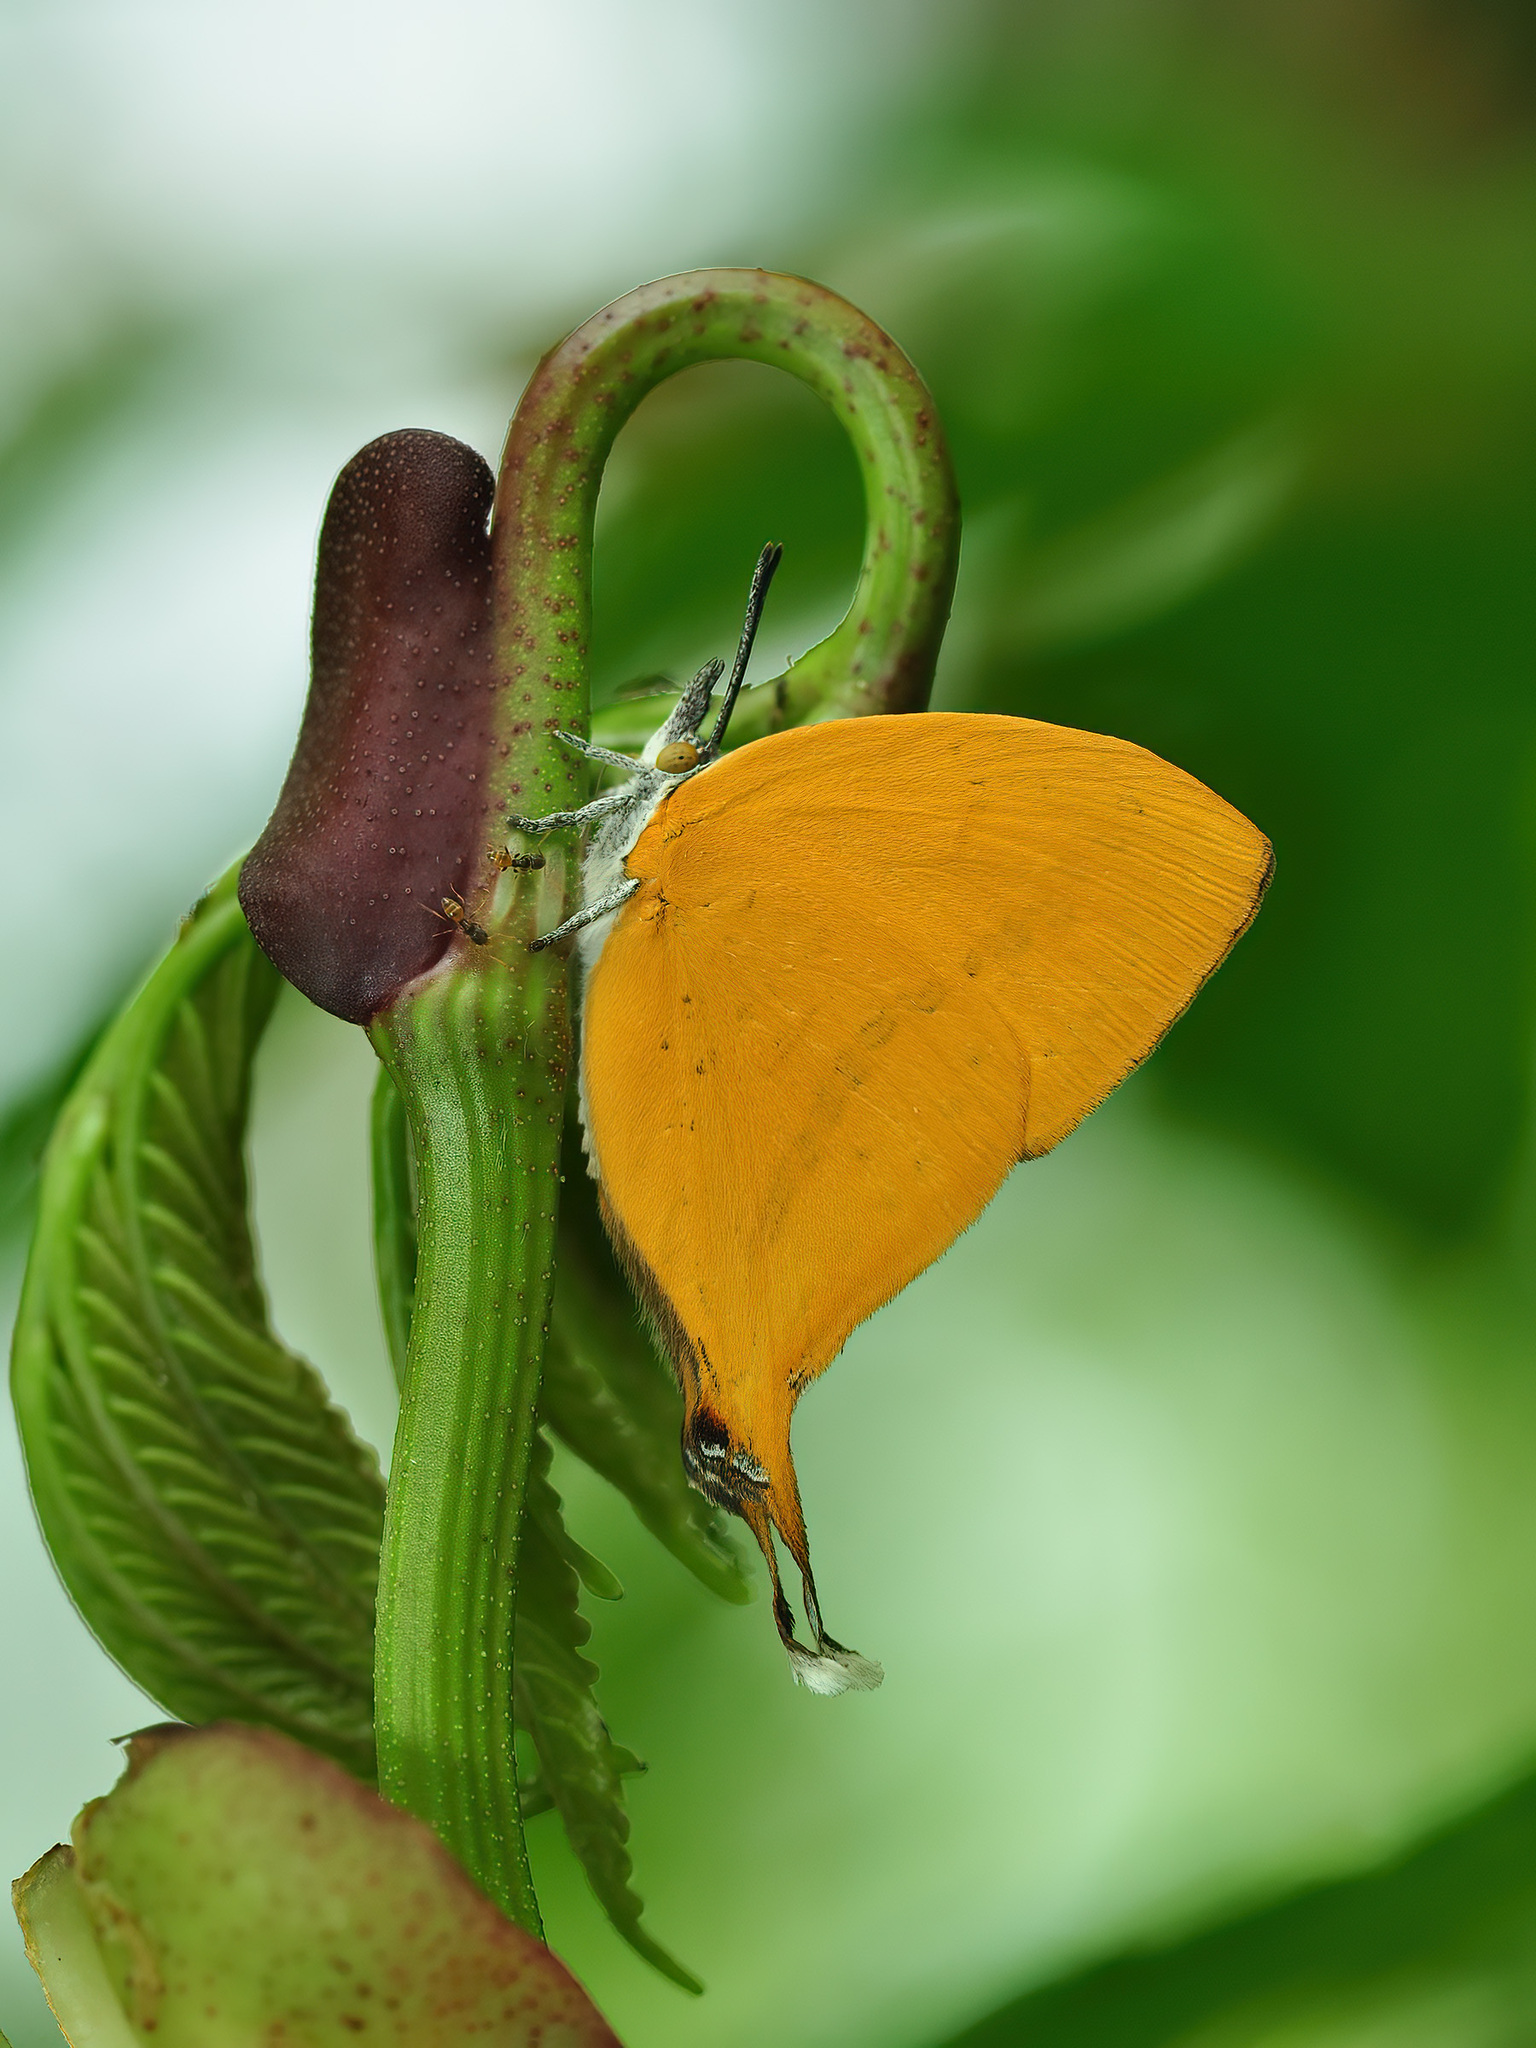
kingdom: Animalia
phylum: Arthropoda
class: Insecta
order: Lepidoptera
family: Lycaenidae
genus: Loxura
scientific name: Loxura atymnus
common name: Common yamfly
